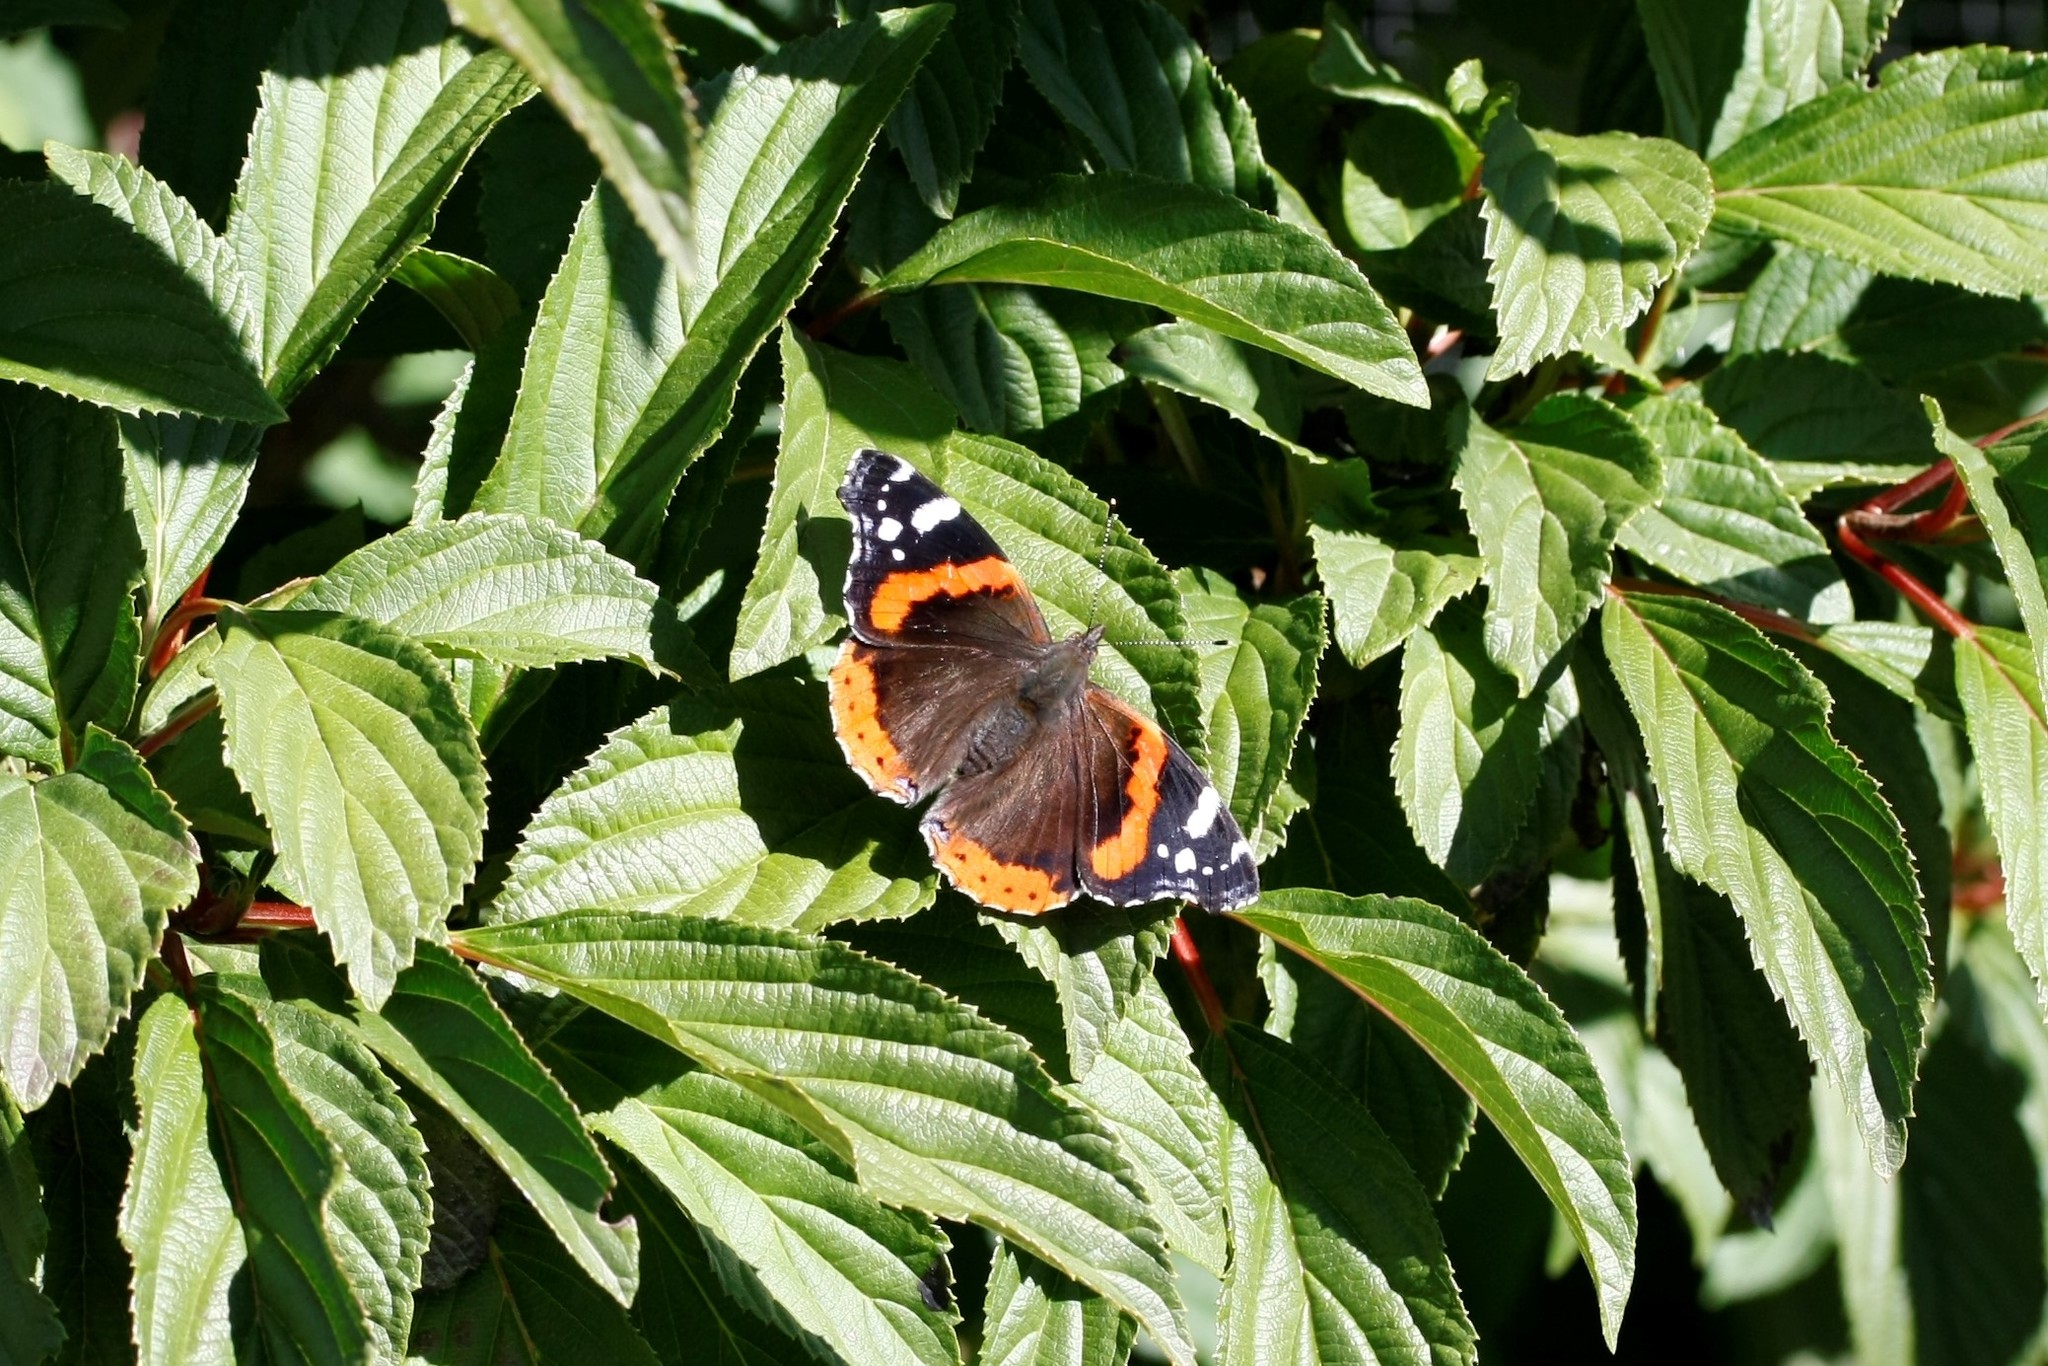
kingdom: Animalia
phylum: Arthropoda
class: Insecta
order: Lepidoptera
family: Nymphalidae
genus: Vanessa
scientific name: Vanessa atalanta
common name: Red admiral
